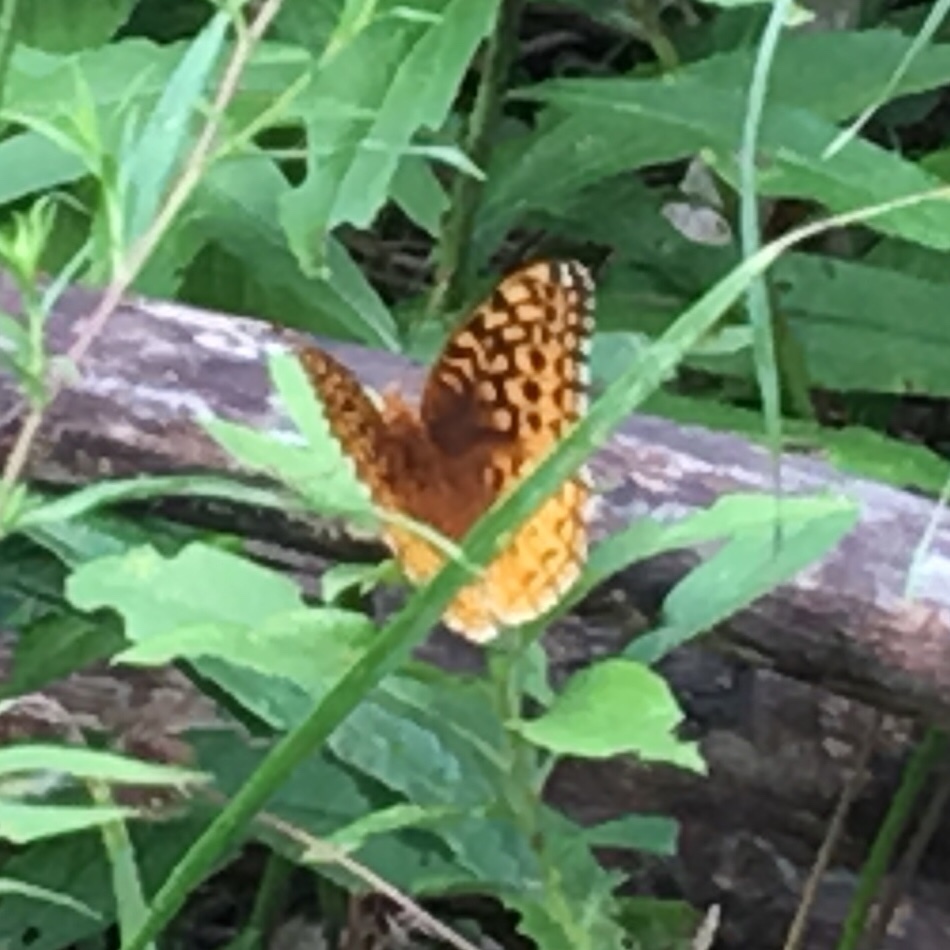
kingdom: Animalia
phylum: Arthropoda
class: Insecta
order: Lepidoptera
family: Nymphalidae
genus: Speyeria
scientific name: Speyeria cybele
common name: Great spangled fritillary
